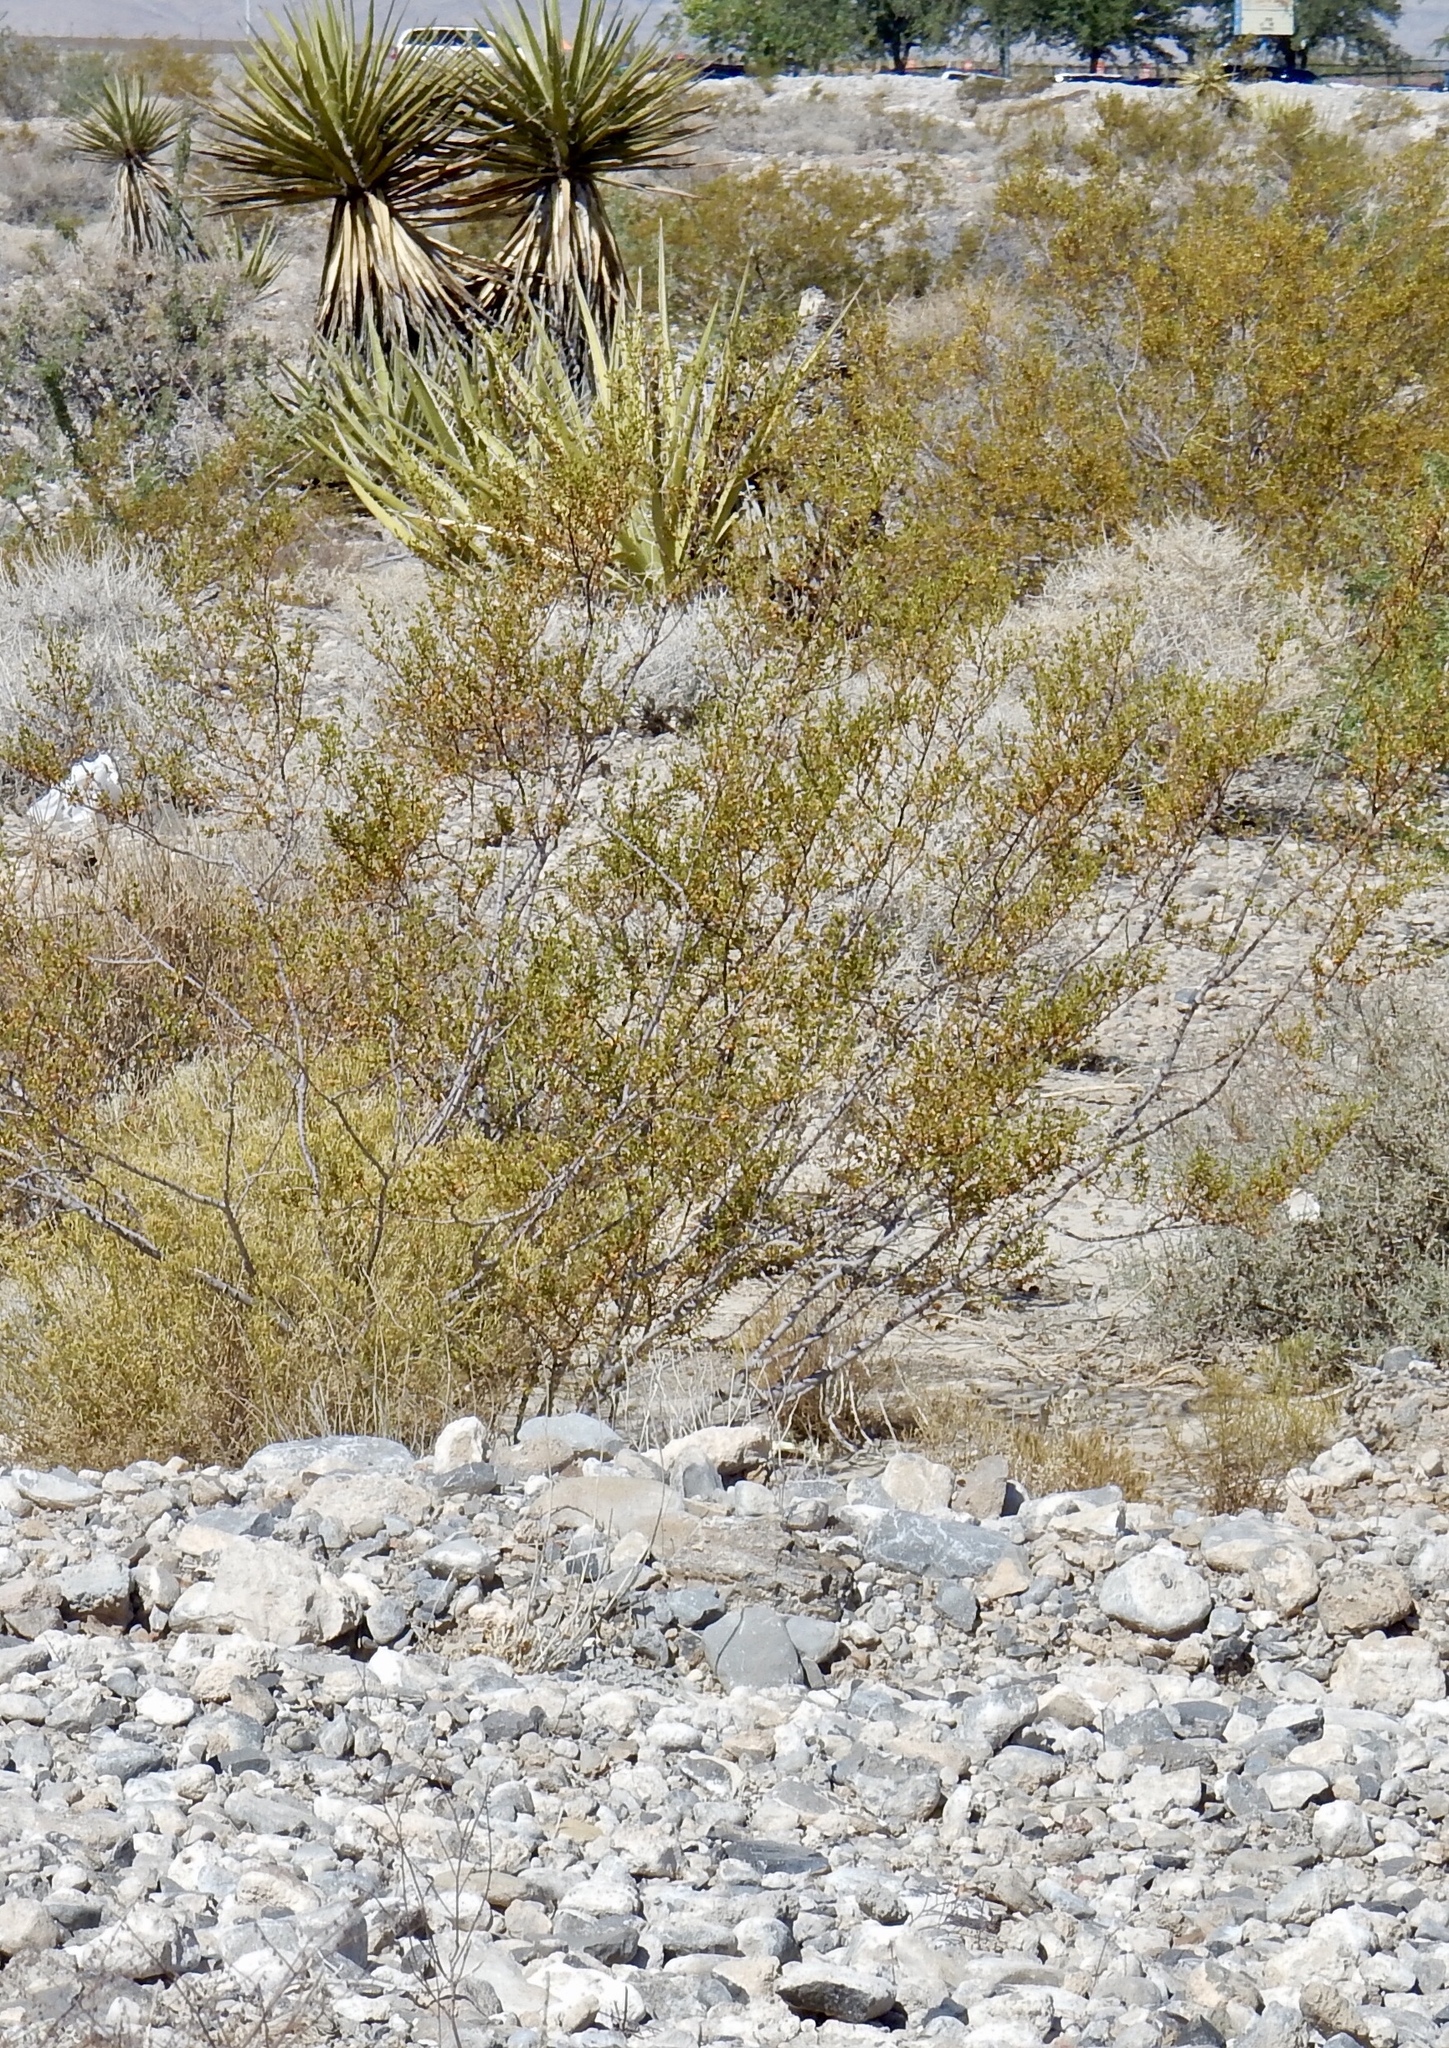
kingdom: Plantae
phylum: Tracheophyta
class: Magnoliopsida
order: Zygophyllales
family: Zygophyllaceae
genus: Larrea
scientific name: Larrea tridentata
